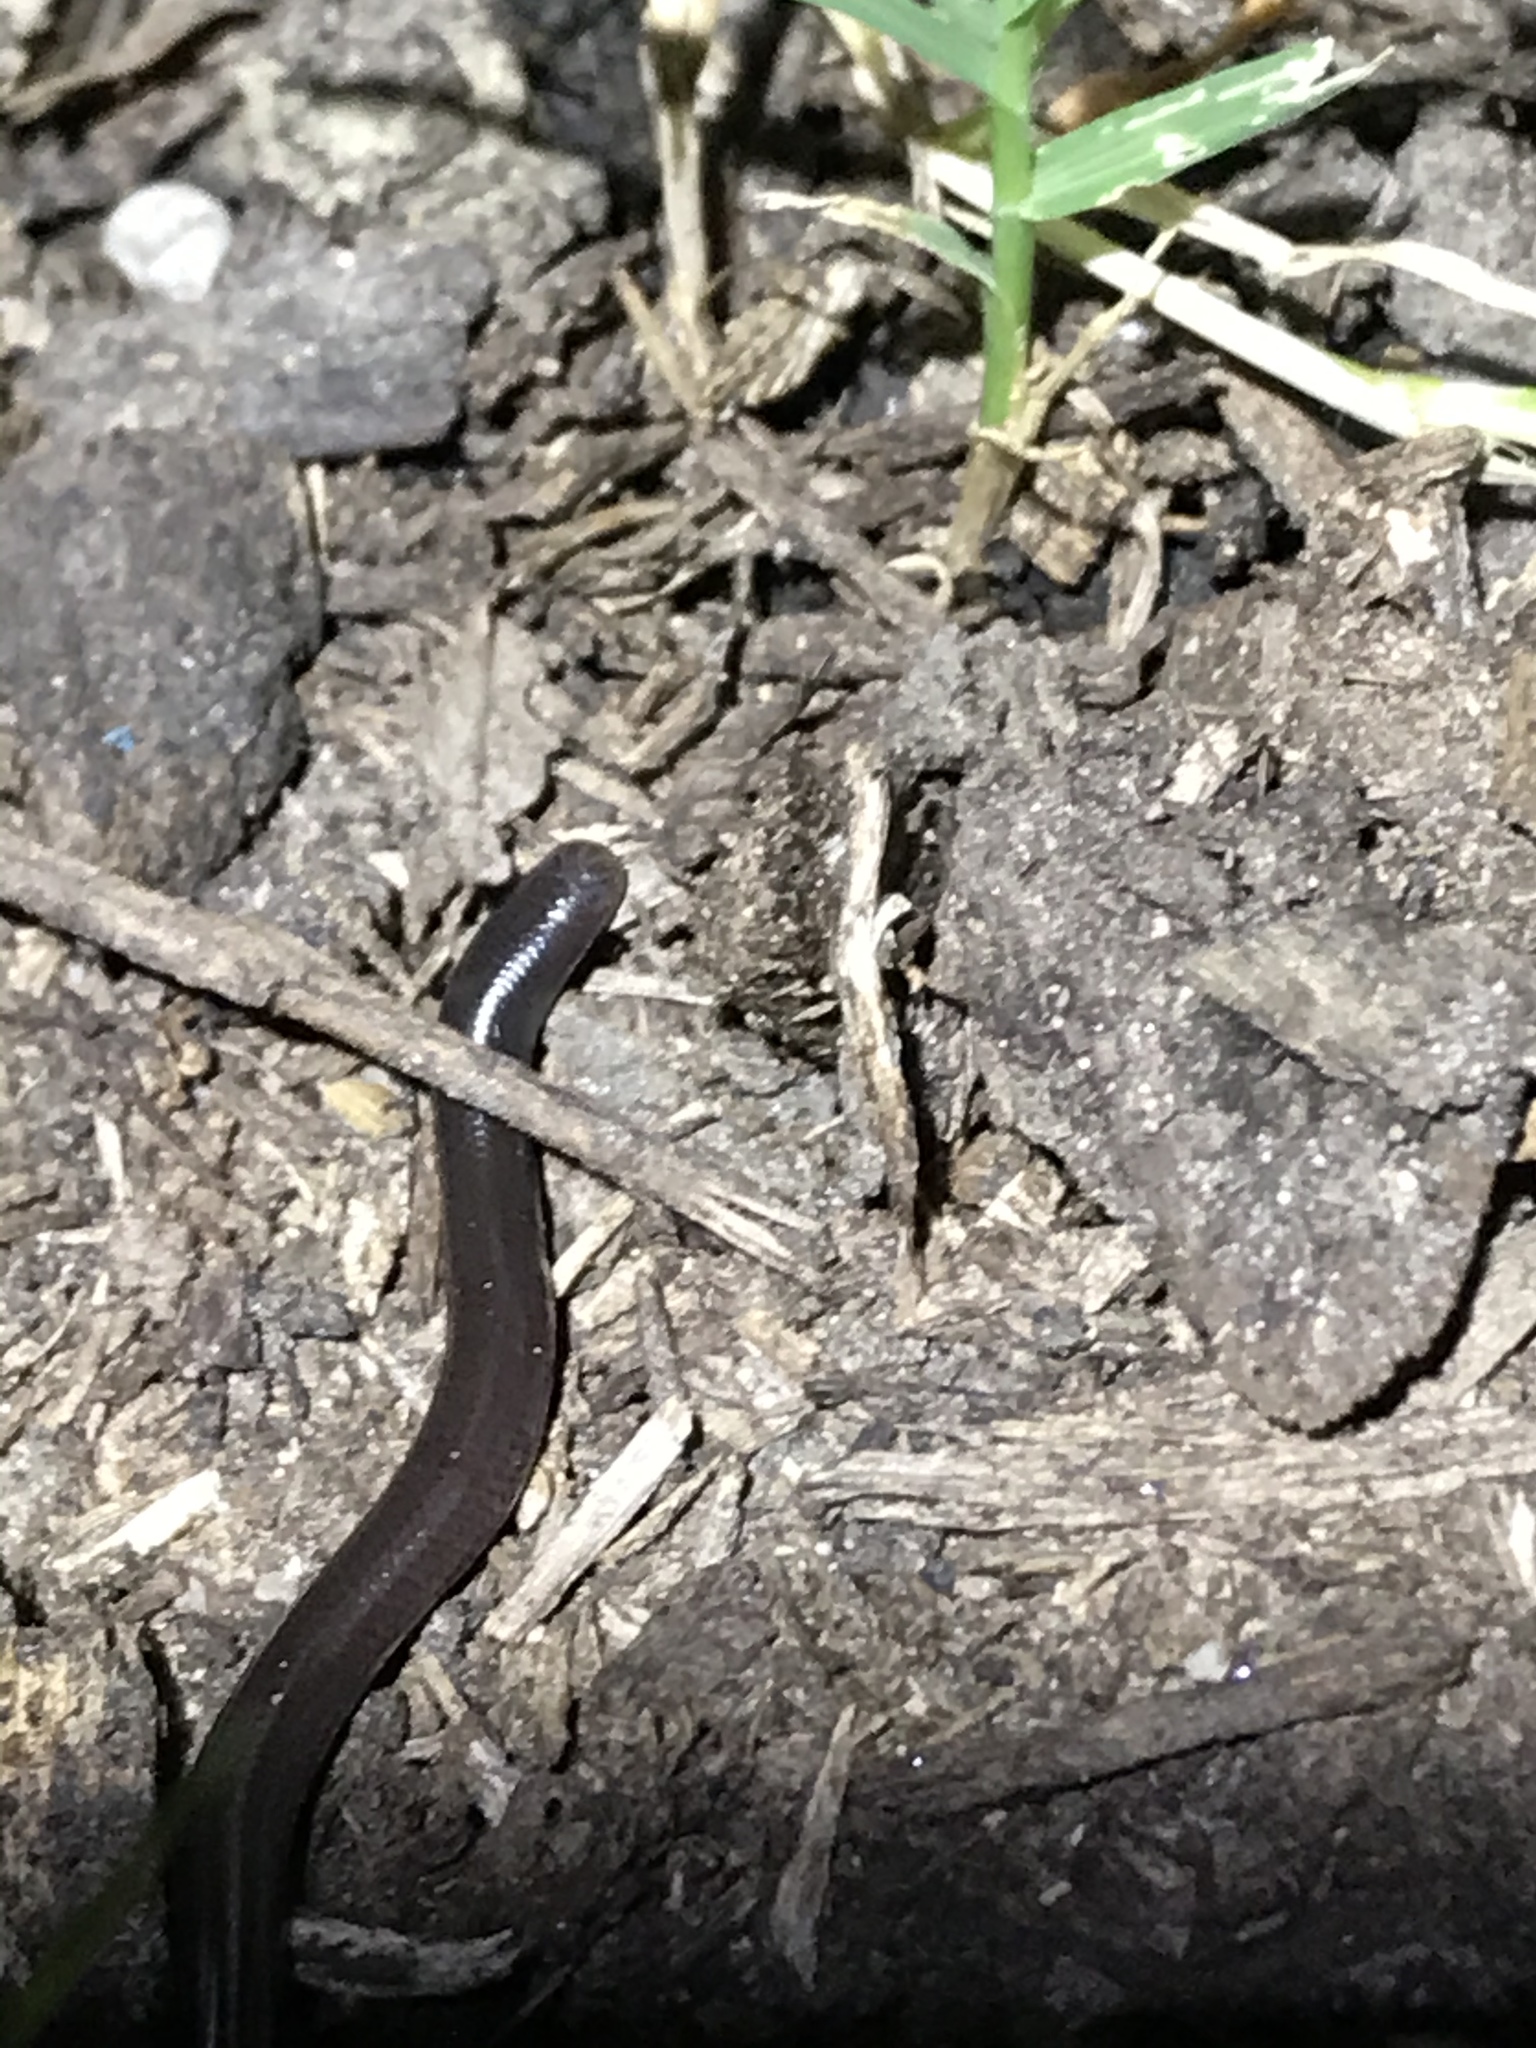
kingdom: Animalia
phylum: Chordata
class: Squamata
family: Typhlopidae
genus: Indotyphlops
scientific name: Indotyphlops braminus
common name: Brahminy blindsnake
